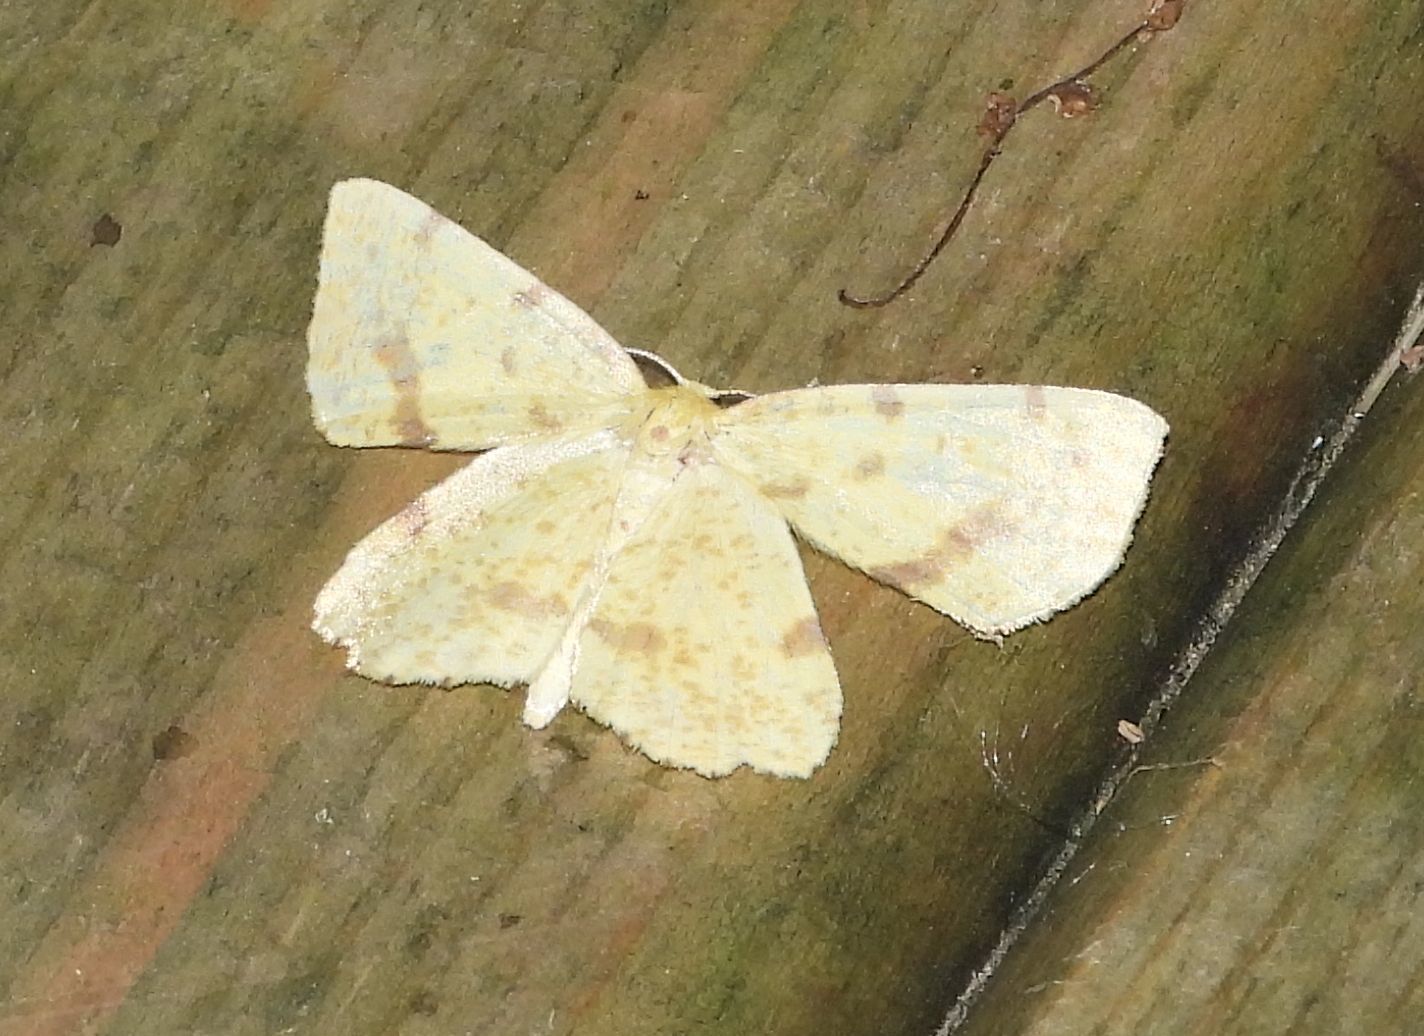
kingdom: Animalia
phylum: Arthropoda
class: Insecta
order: Lepidoptera
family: Geometridae
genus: Xanthotype
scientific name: Xanthotype
